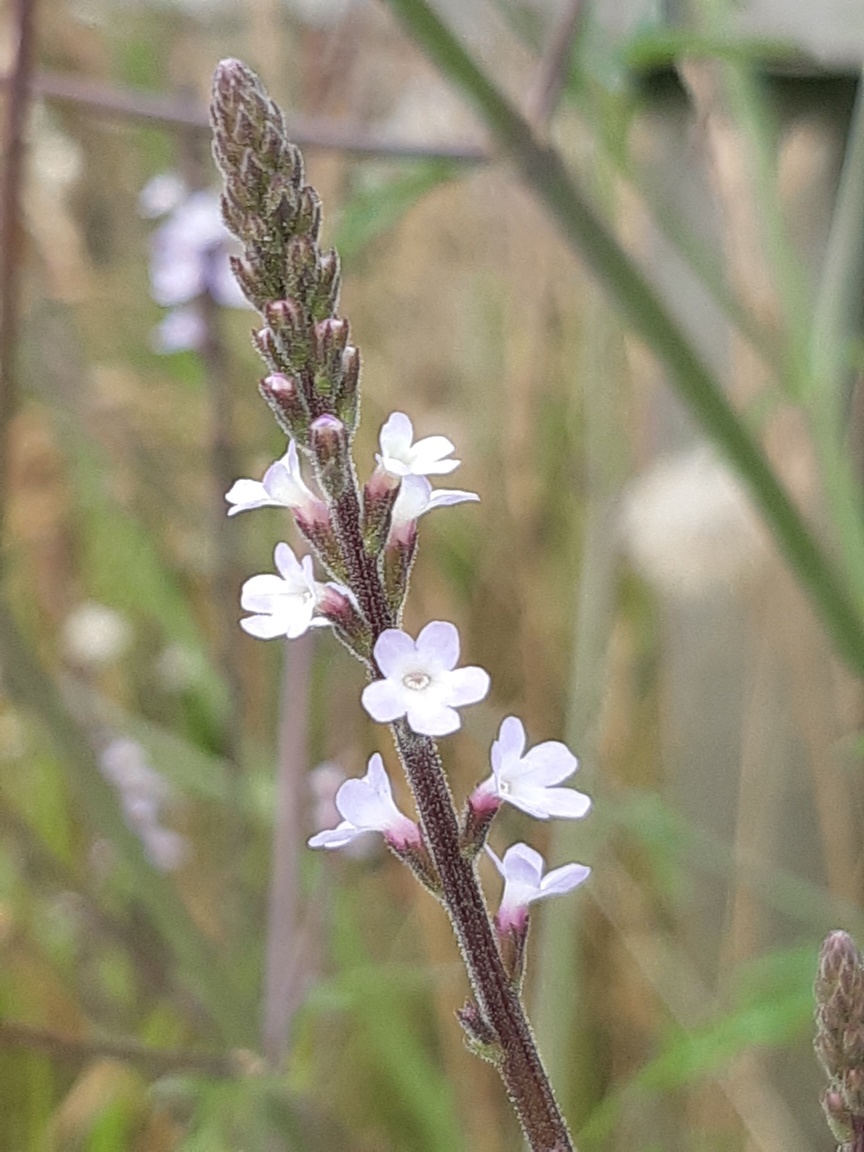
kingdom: Plantae
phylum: Tracheophyta
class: Magnoliopsida
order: Lamiales
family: Verbenaceae
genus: Verbena
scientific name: Verbena officinalis
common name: Vervain
